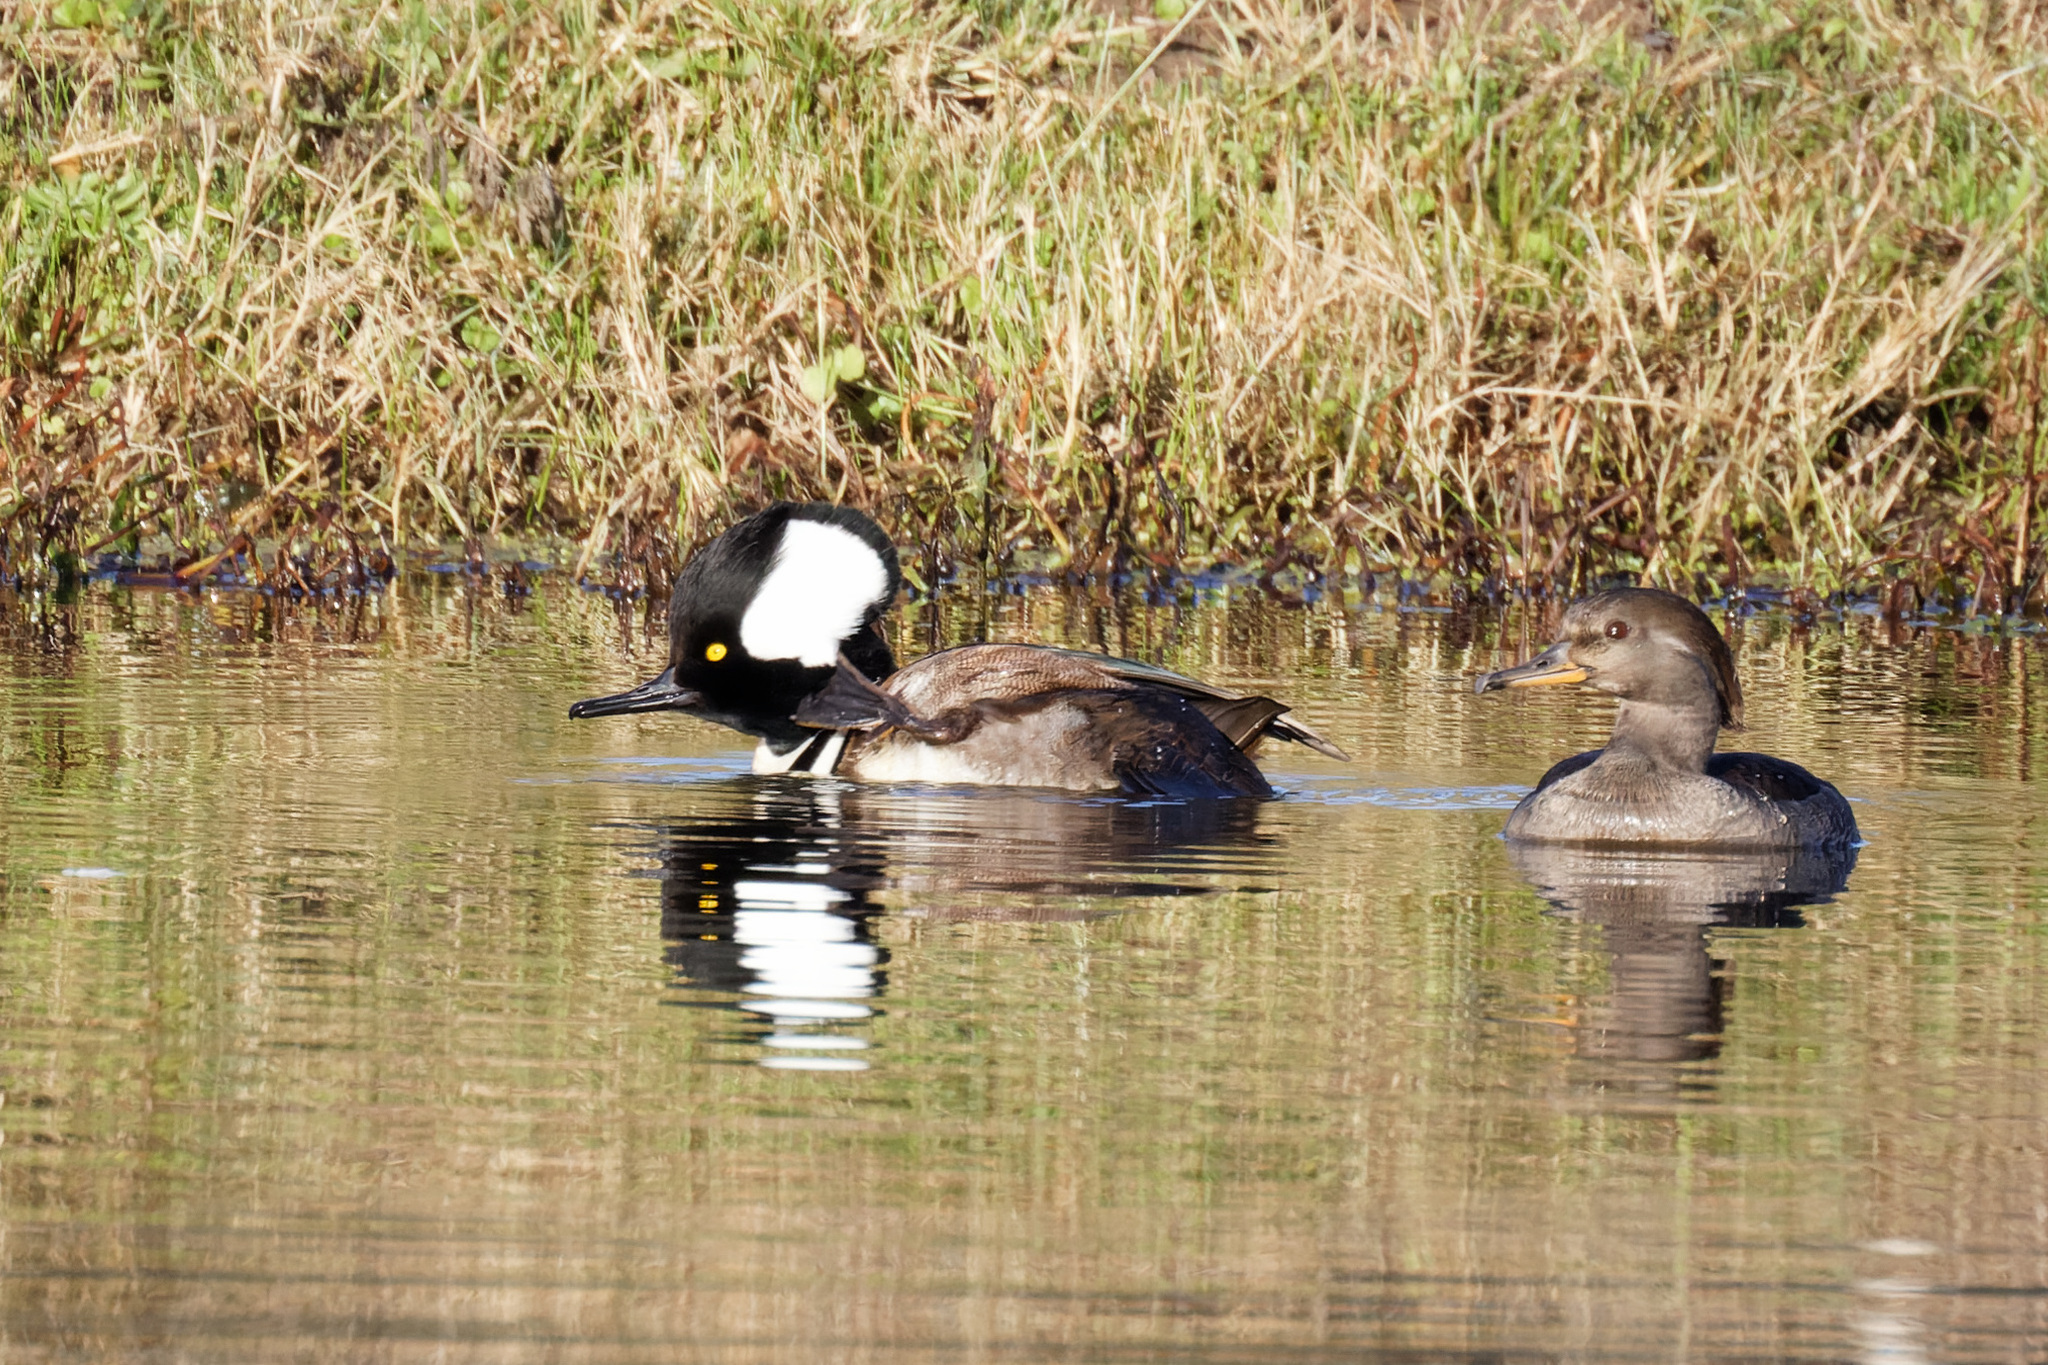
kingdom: Animalia
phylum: Chordata
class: Aves
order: Anseriformes
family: Anatidae
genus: Lophodytes
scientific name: Lophodytes cucullatus
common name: Hooded merganser
